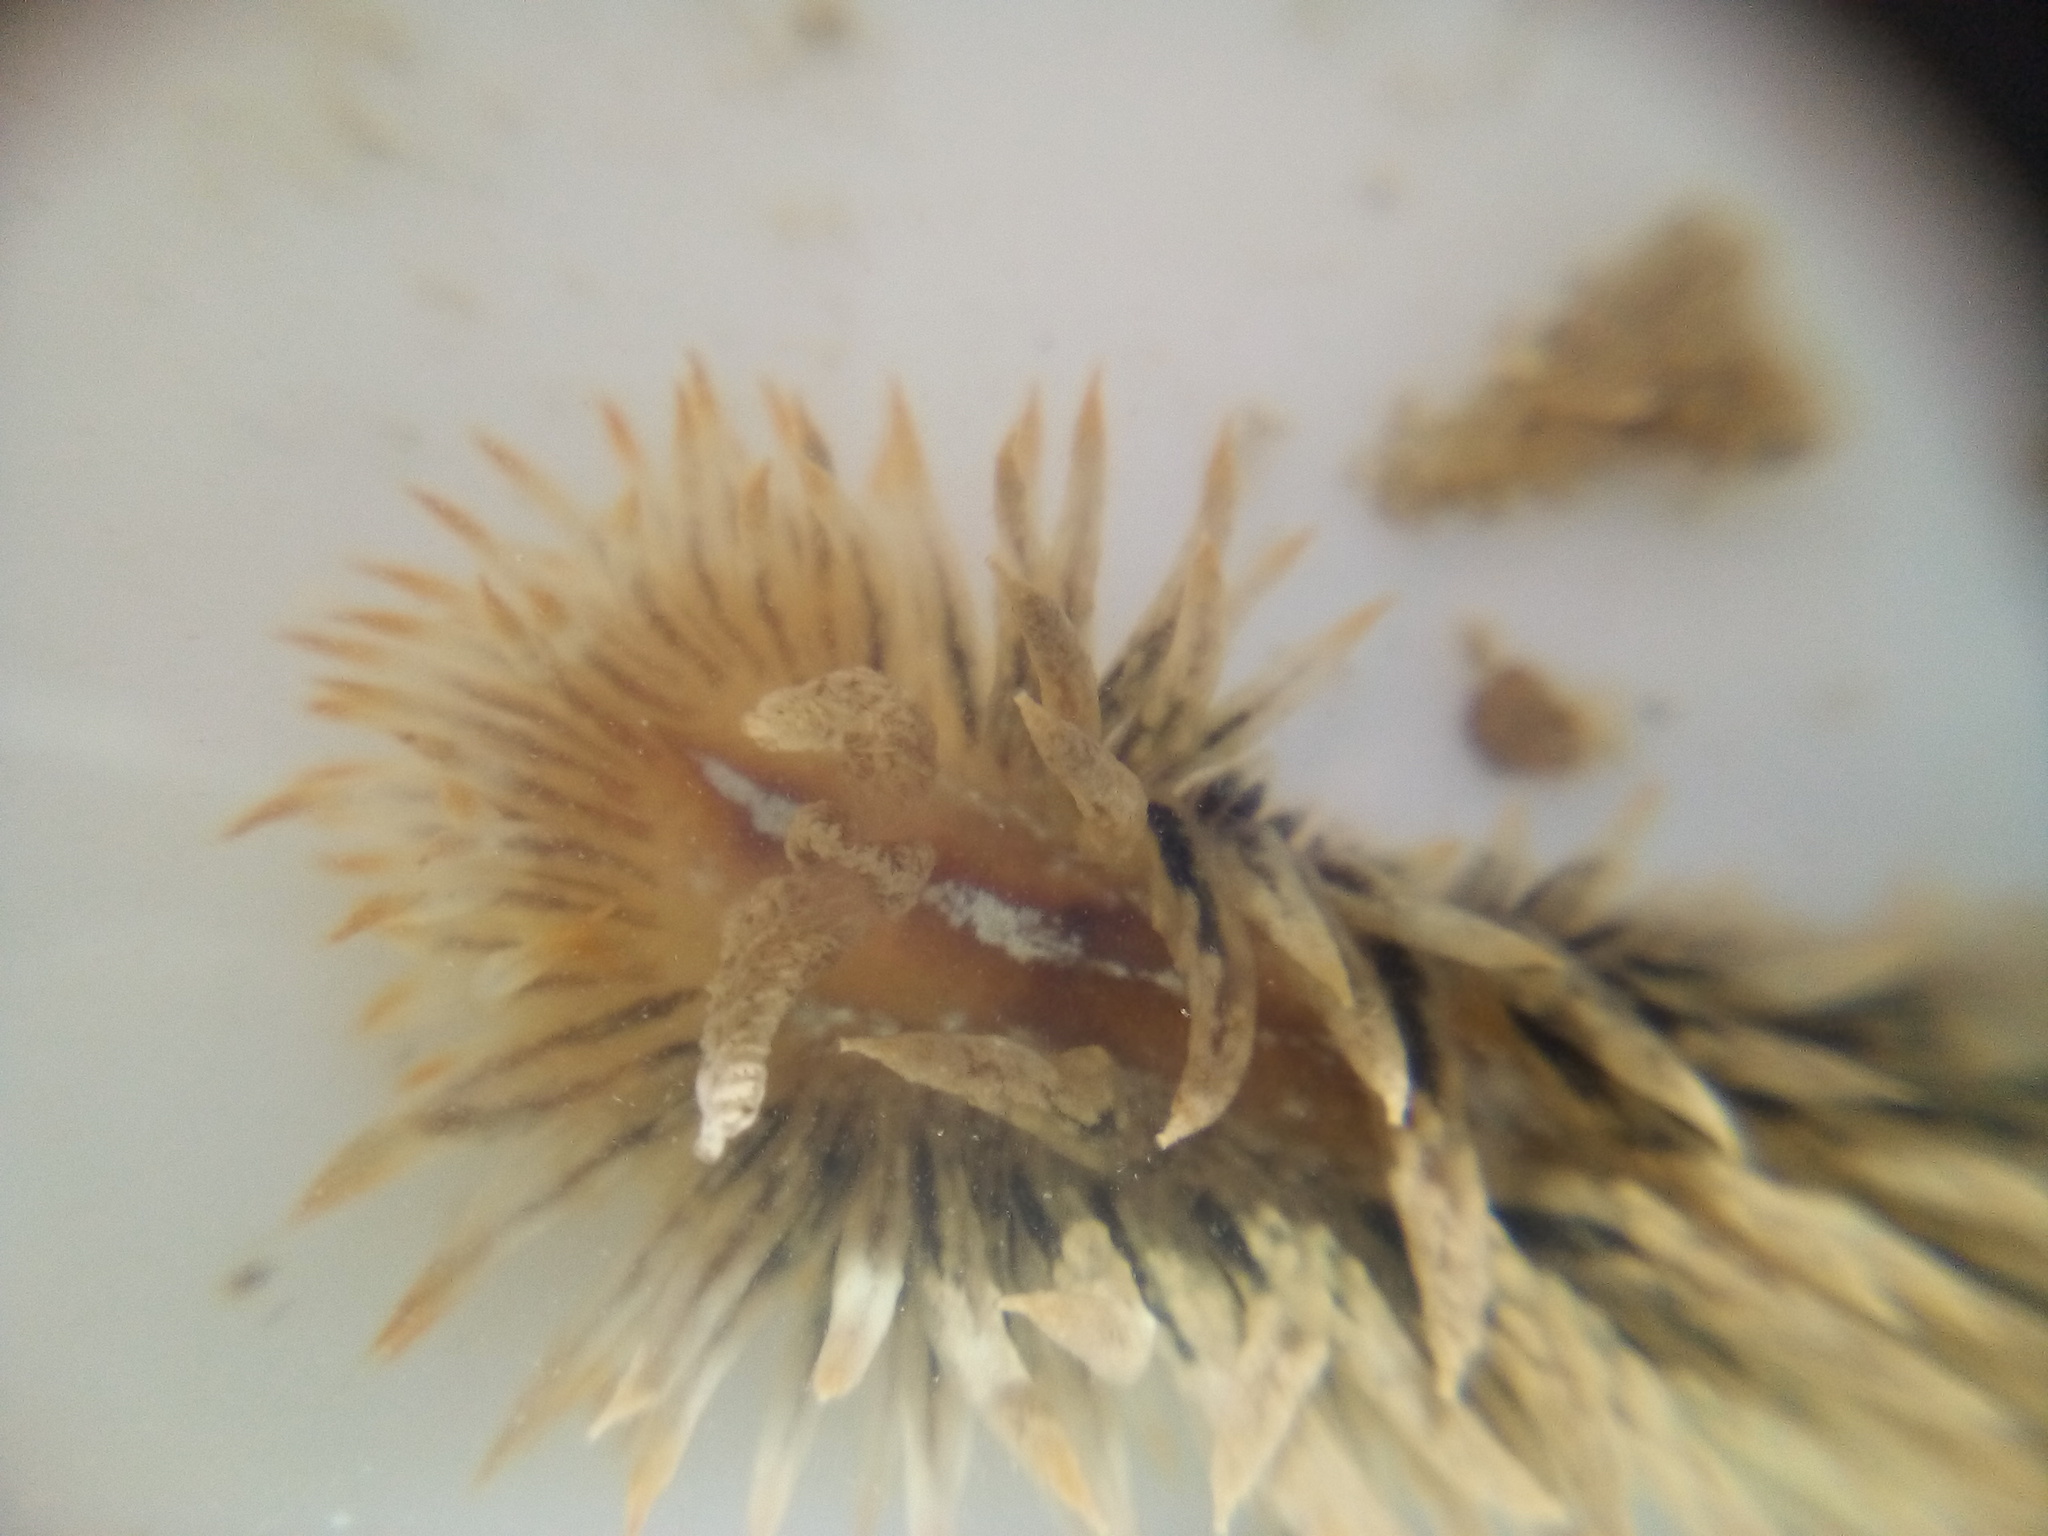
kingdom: Animalia
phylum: Mollusca
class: Gastropoda
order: Nudibranchia
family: Janolidae
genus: Antiopella
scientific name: Antiopella novozealandica
